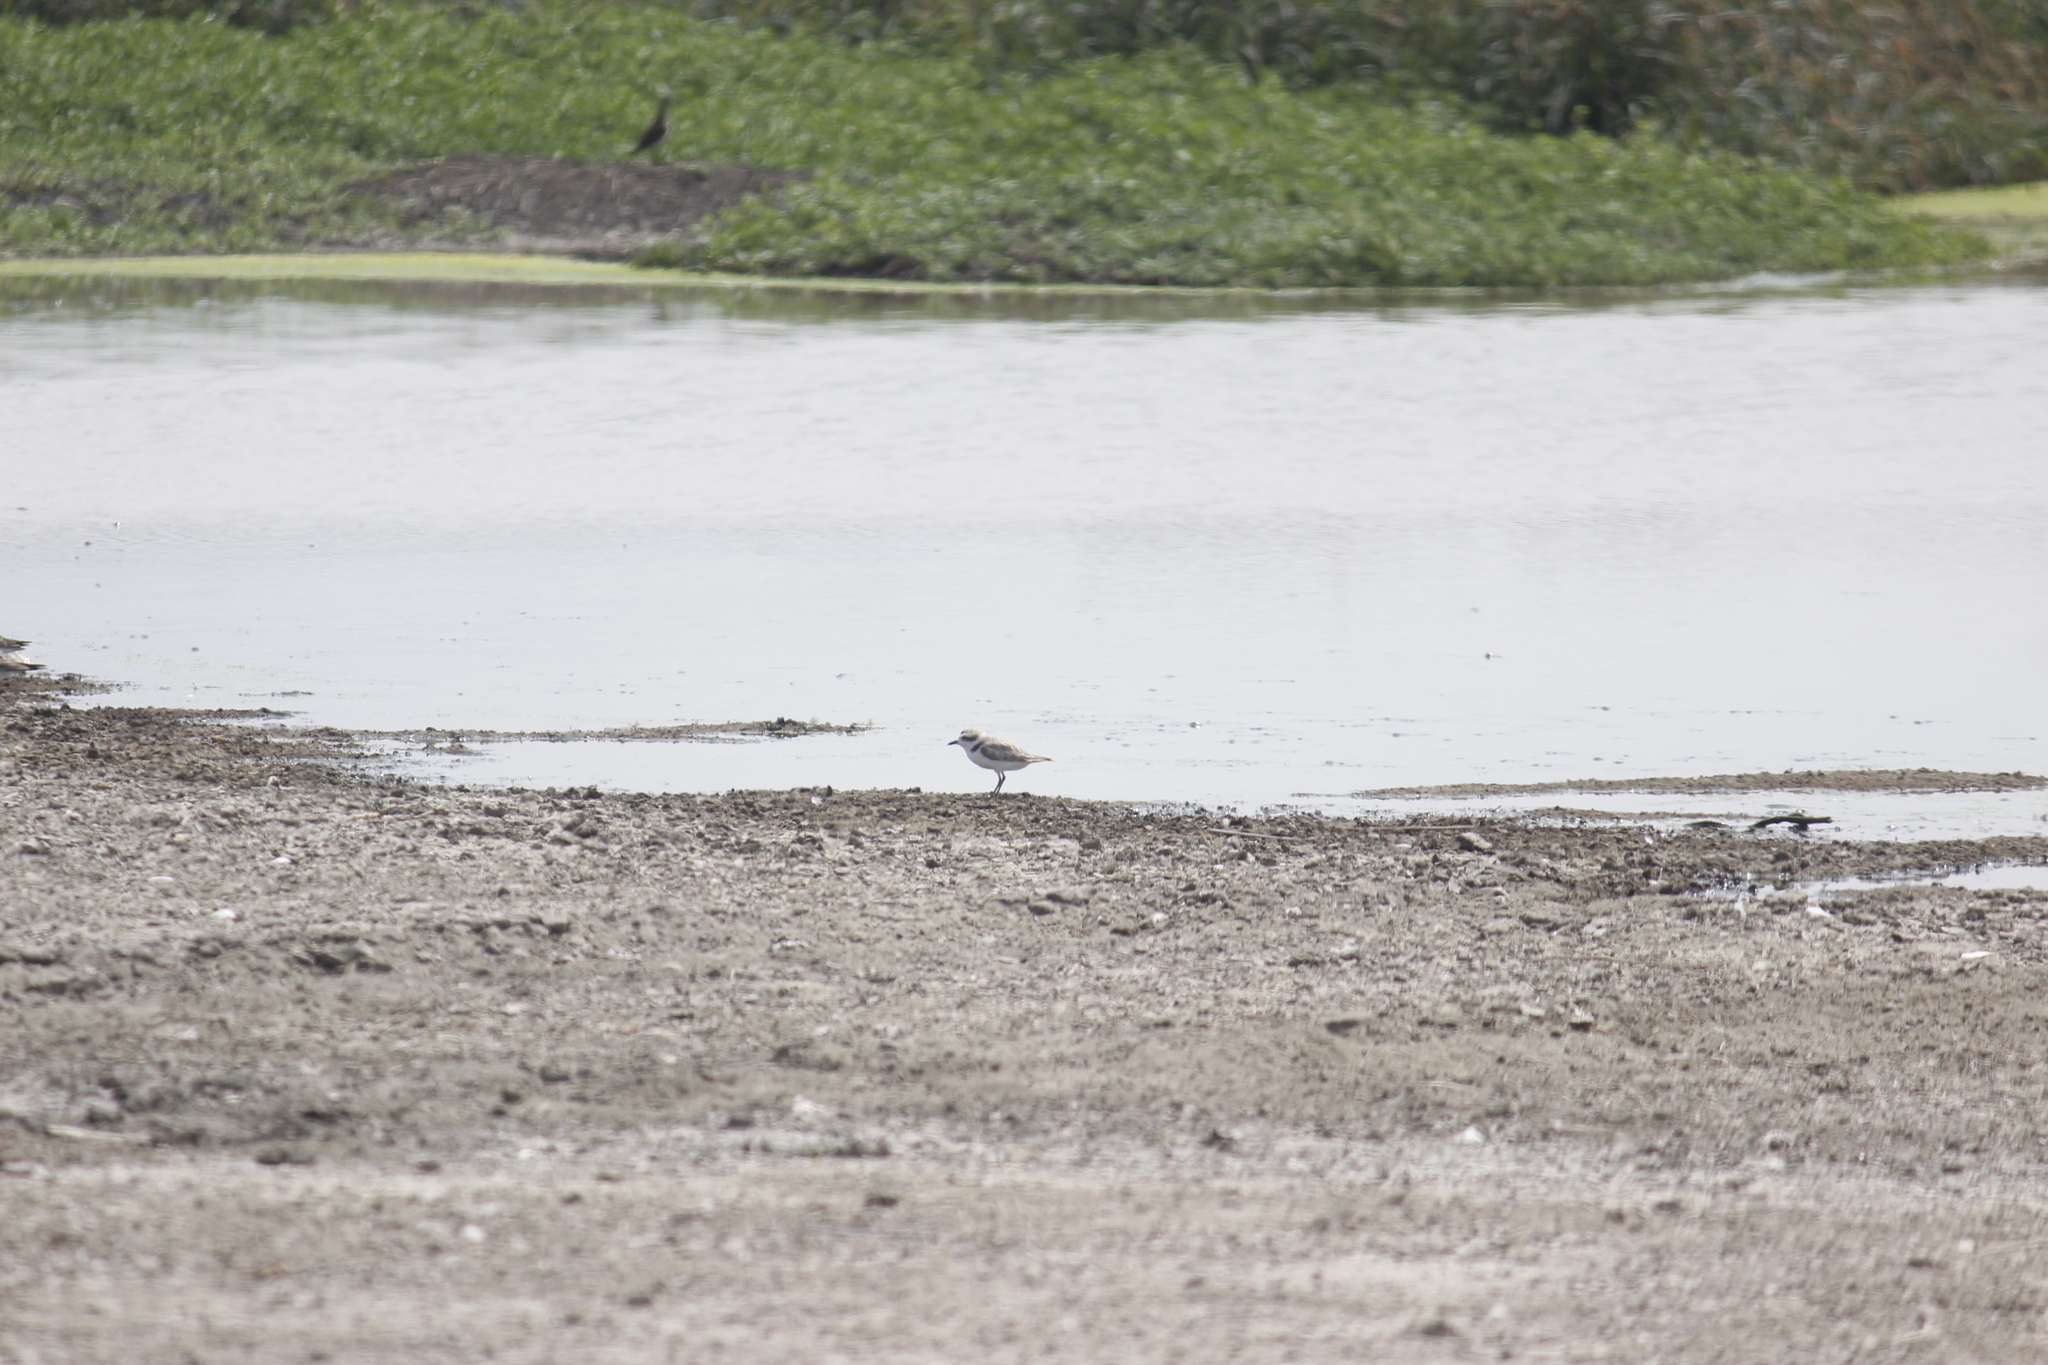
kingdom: Animalia
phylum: Chordata
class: Aves
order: Charadriiformes
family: Charadriidae
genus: Anarhynchus
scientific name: Anarhynchus
